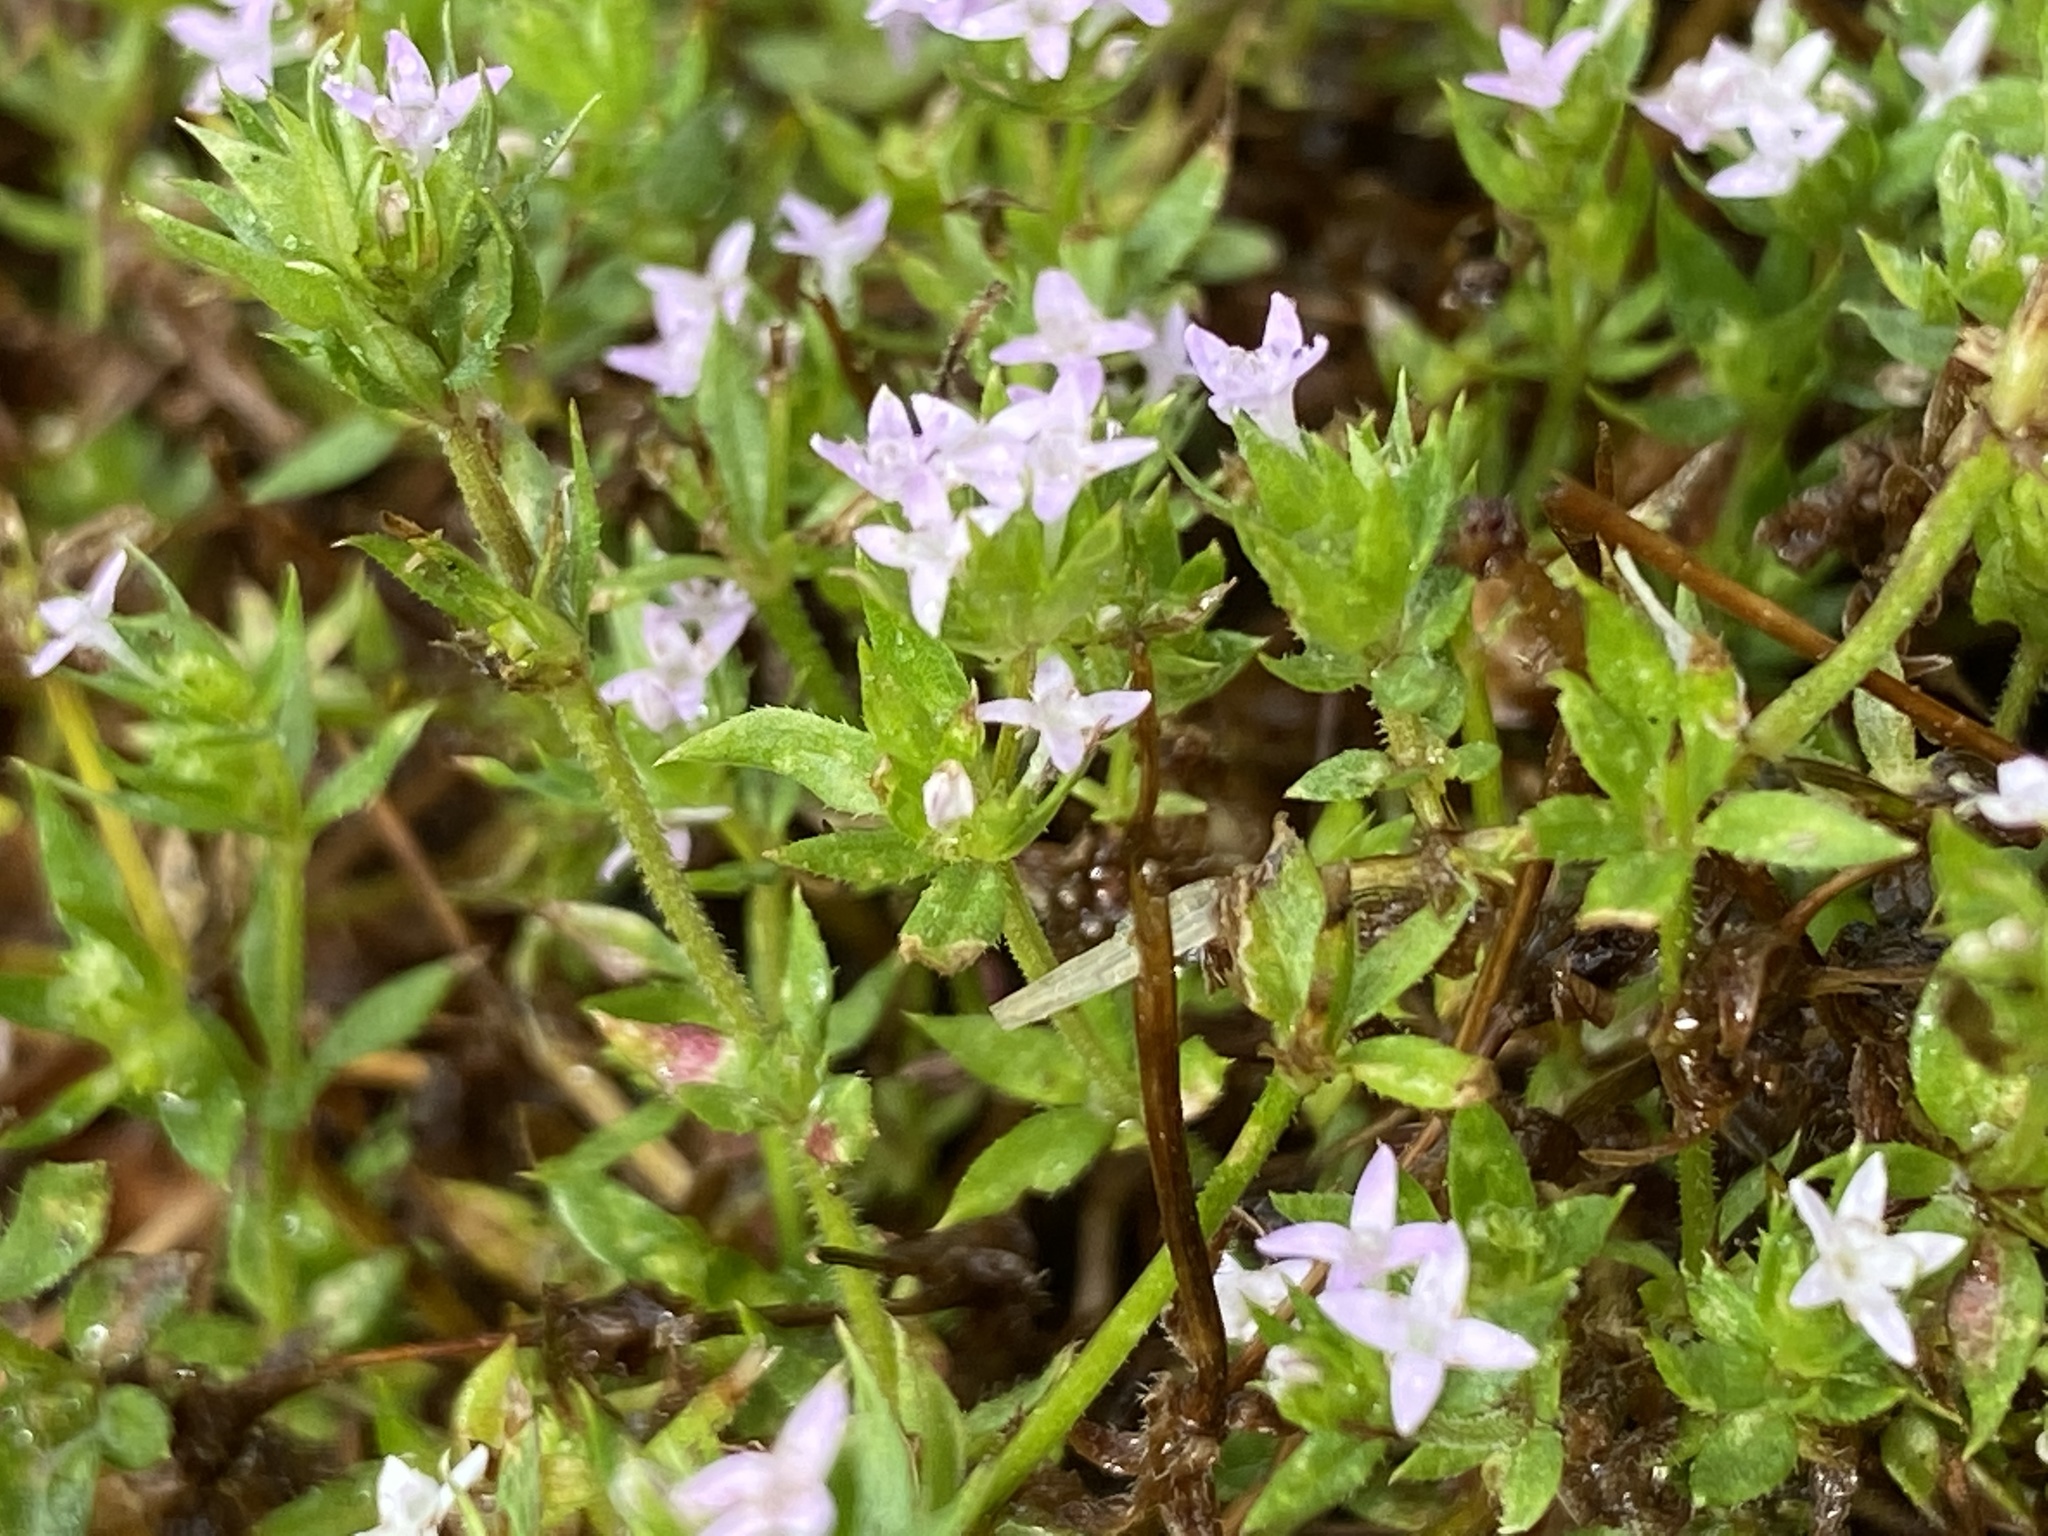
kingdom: Plantae
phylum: Tracheophyta
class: Magnoliopsida
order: Gentianales
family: Rubiaceae
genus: Sherardia
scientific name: Sherardia arvensis
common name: Field madder
